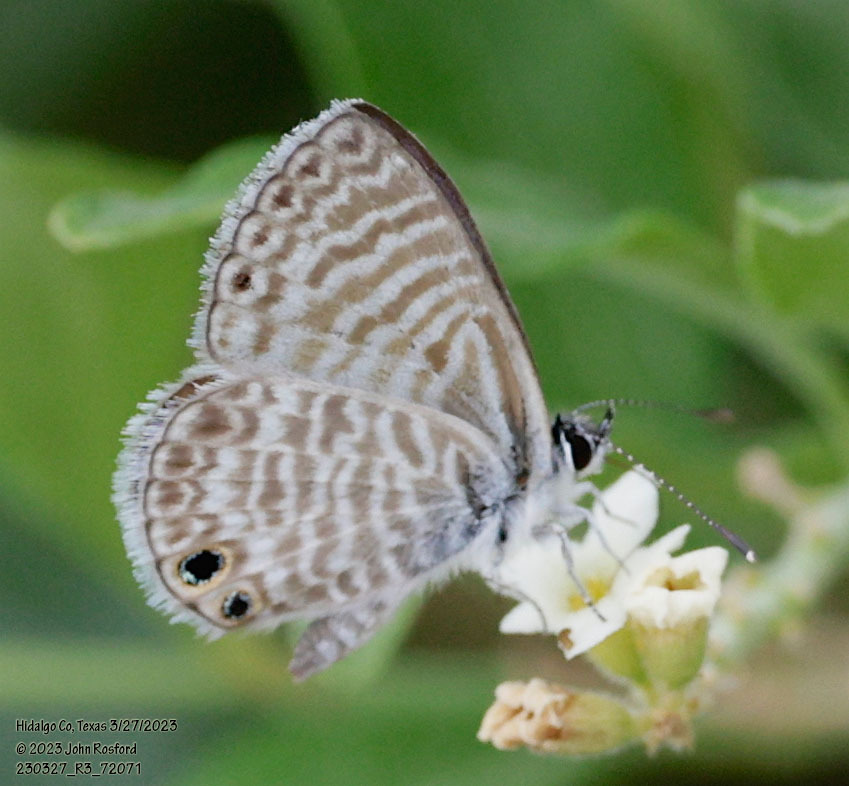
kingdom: Animalia
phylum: Arthropoda
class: Insecta
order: Lepidoptera
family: Lycaenidae
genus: Leptotes
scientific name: Leptotes marina
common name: Marine blue
